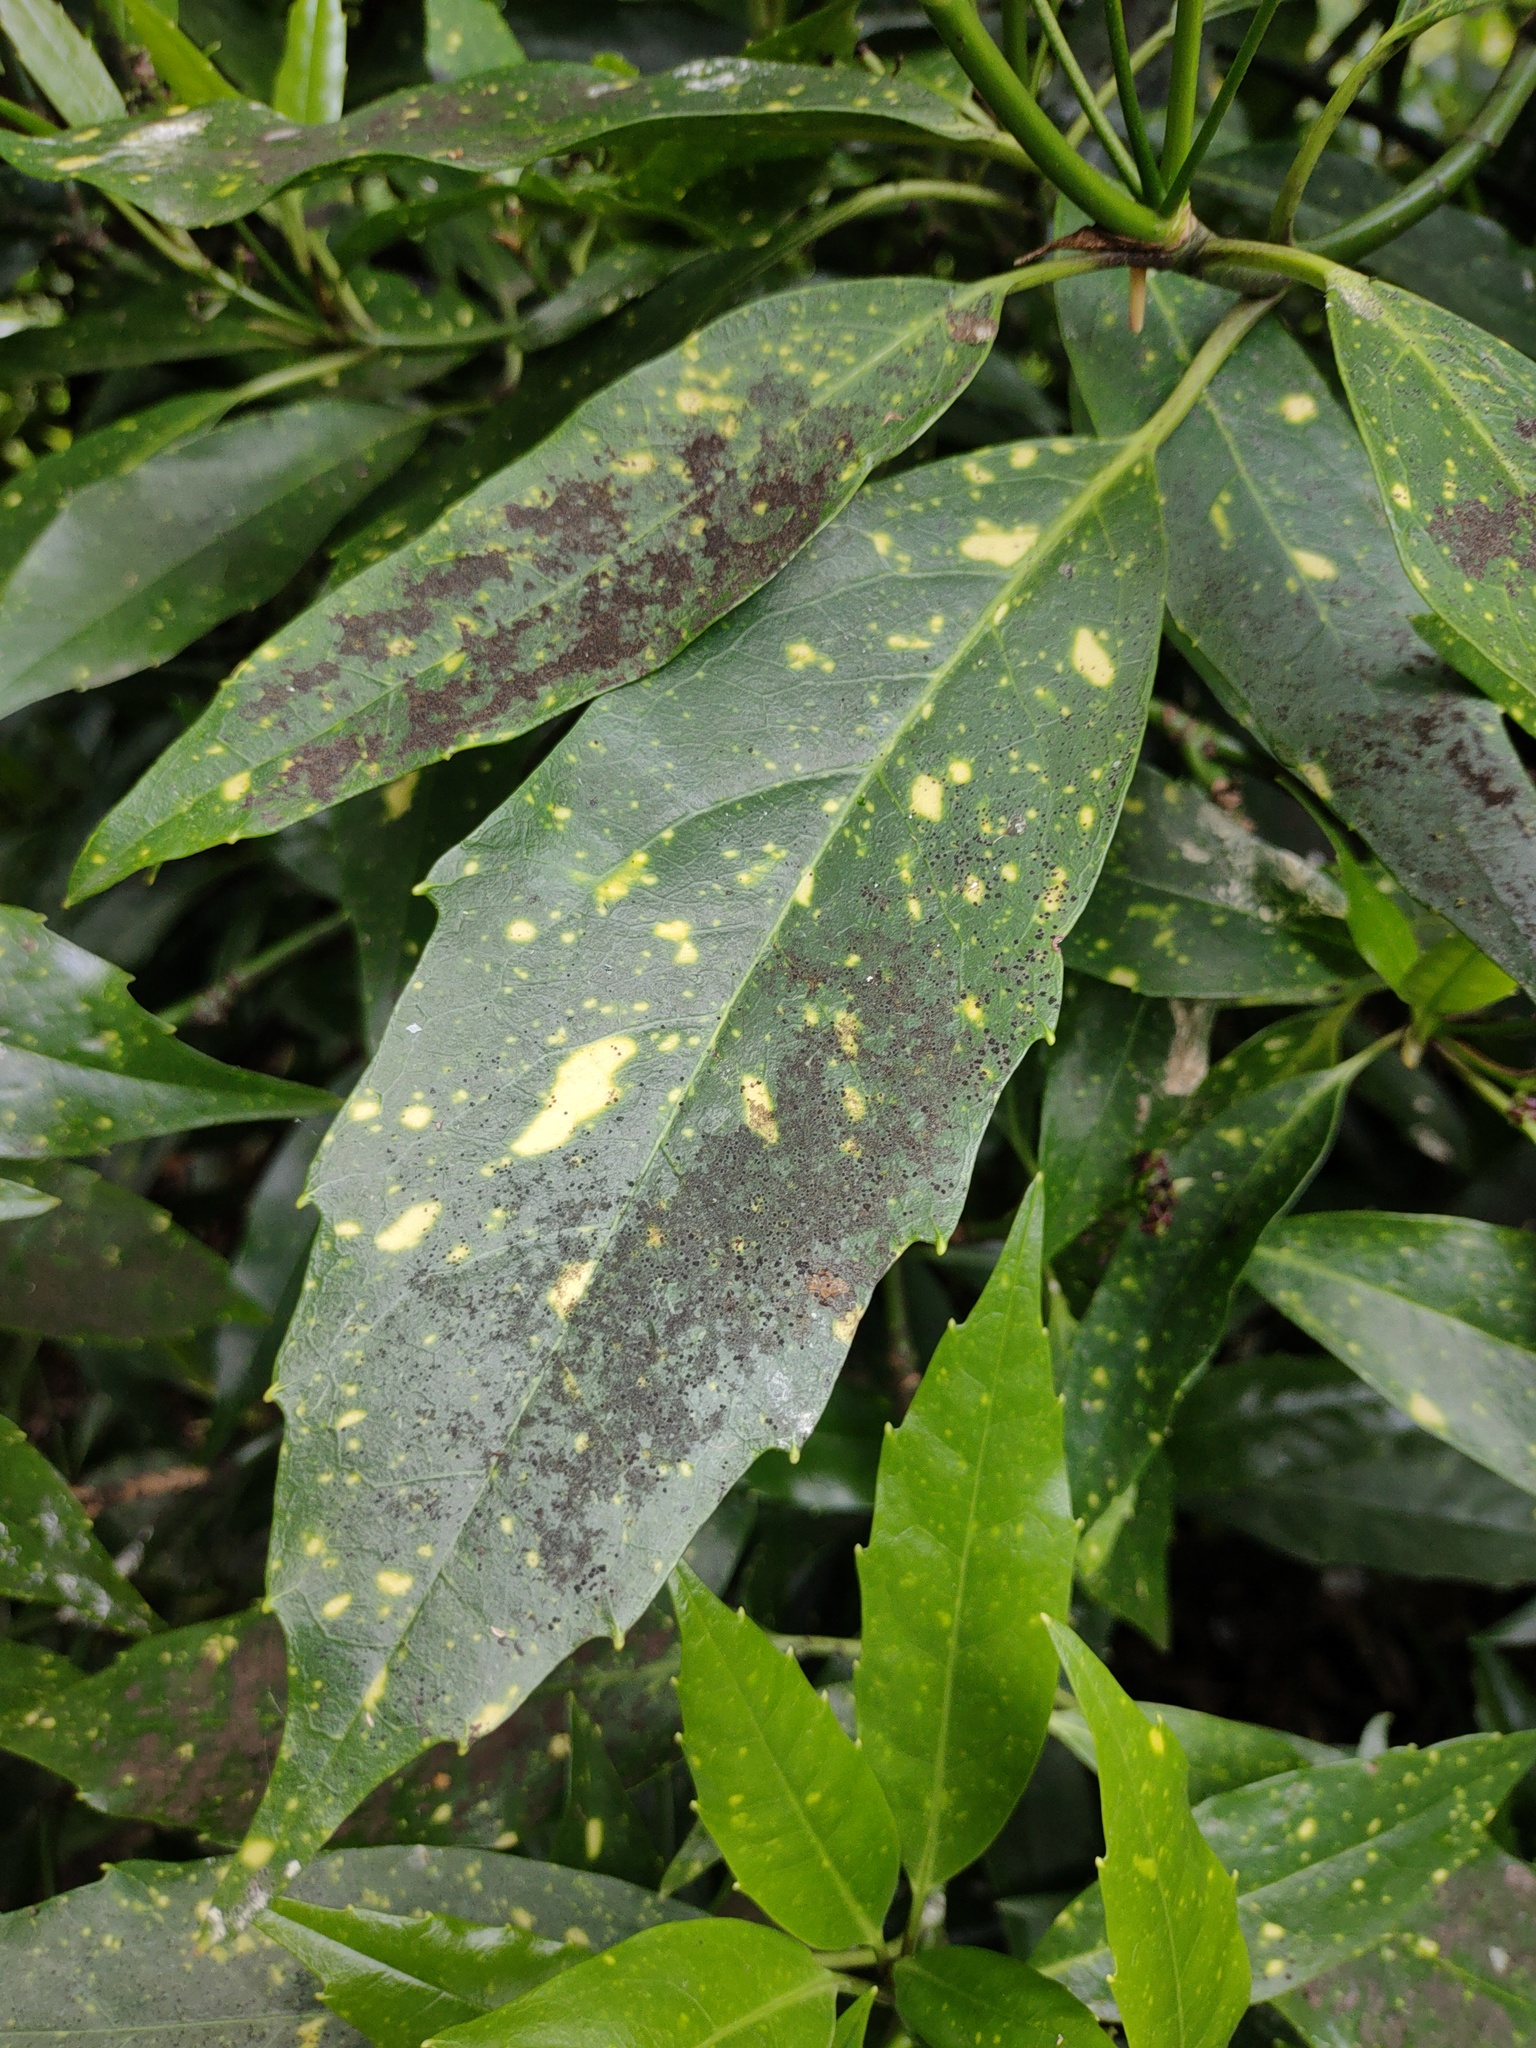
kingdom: Plantae
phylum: Tracheophyta
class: Magnoliopsida
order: Garryales
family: Garryaceae
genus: Aucuba
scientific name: Aucuba japonica
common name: Spotted-laurel
